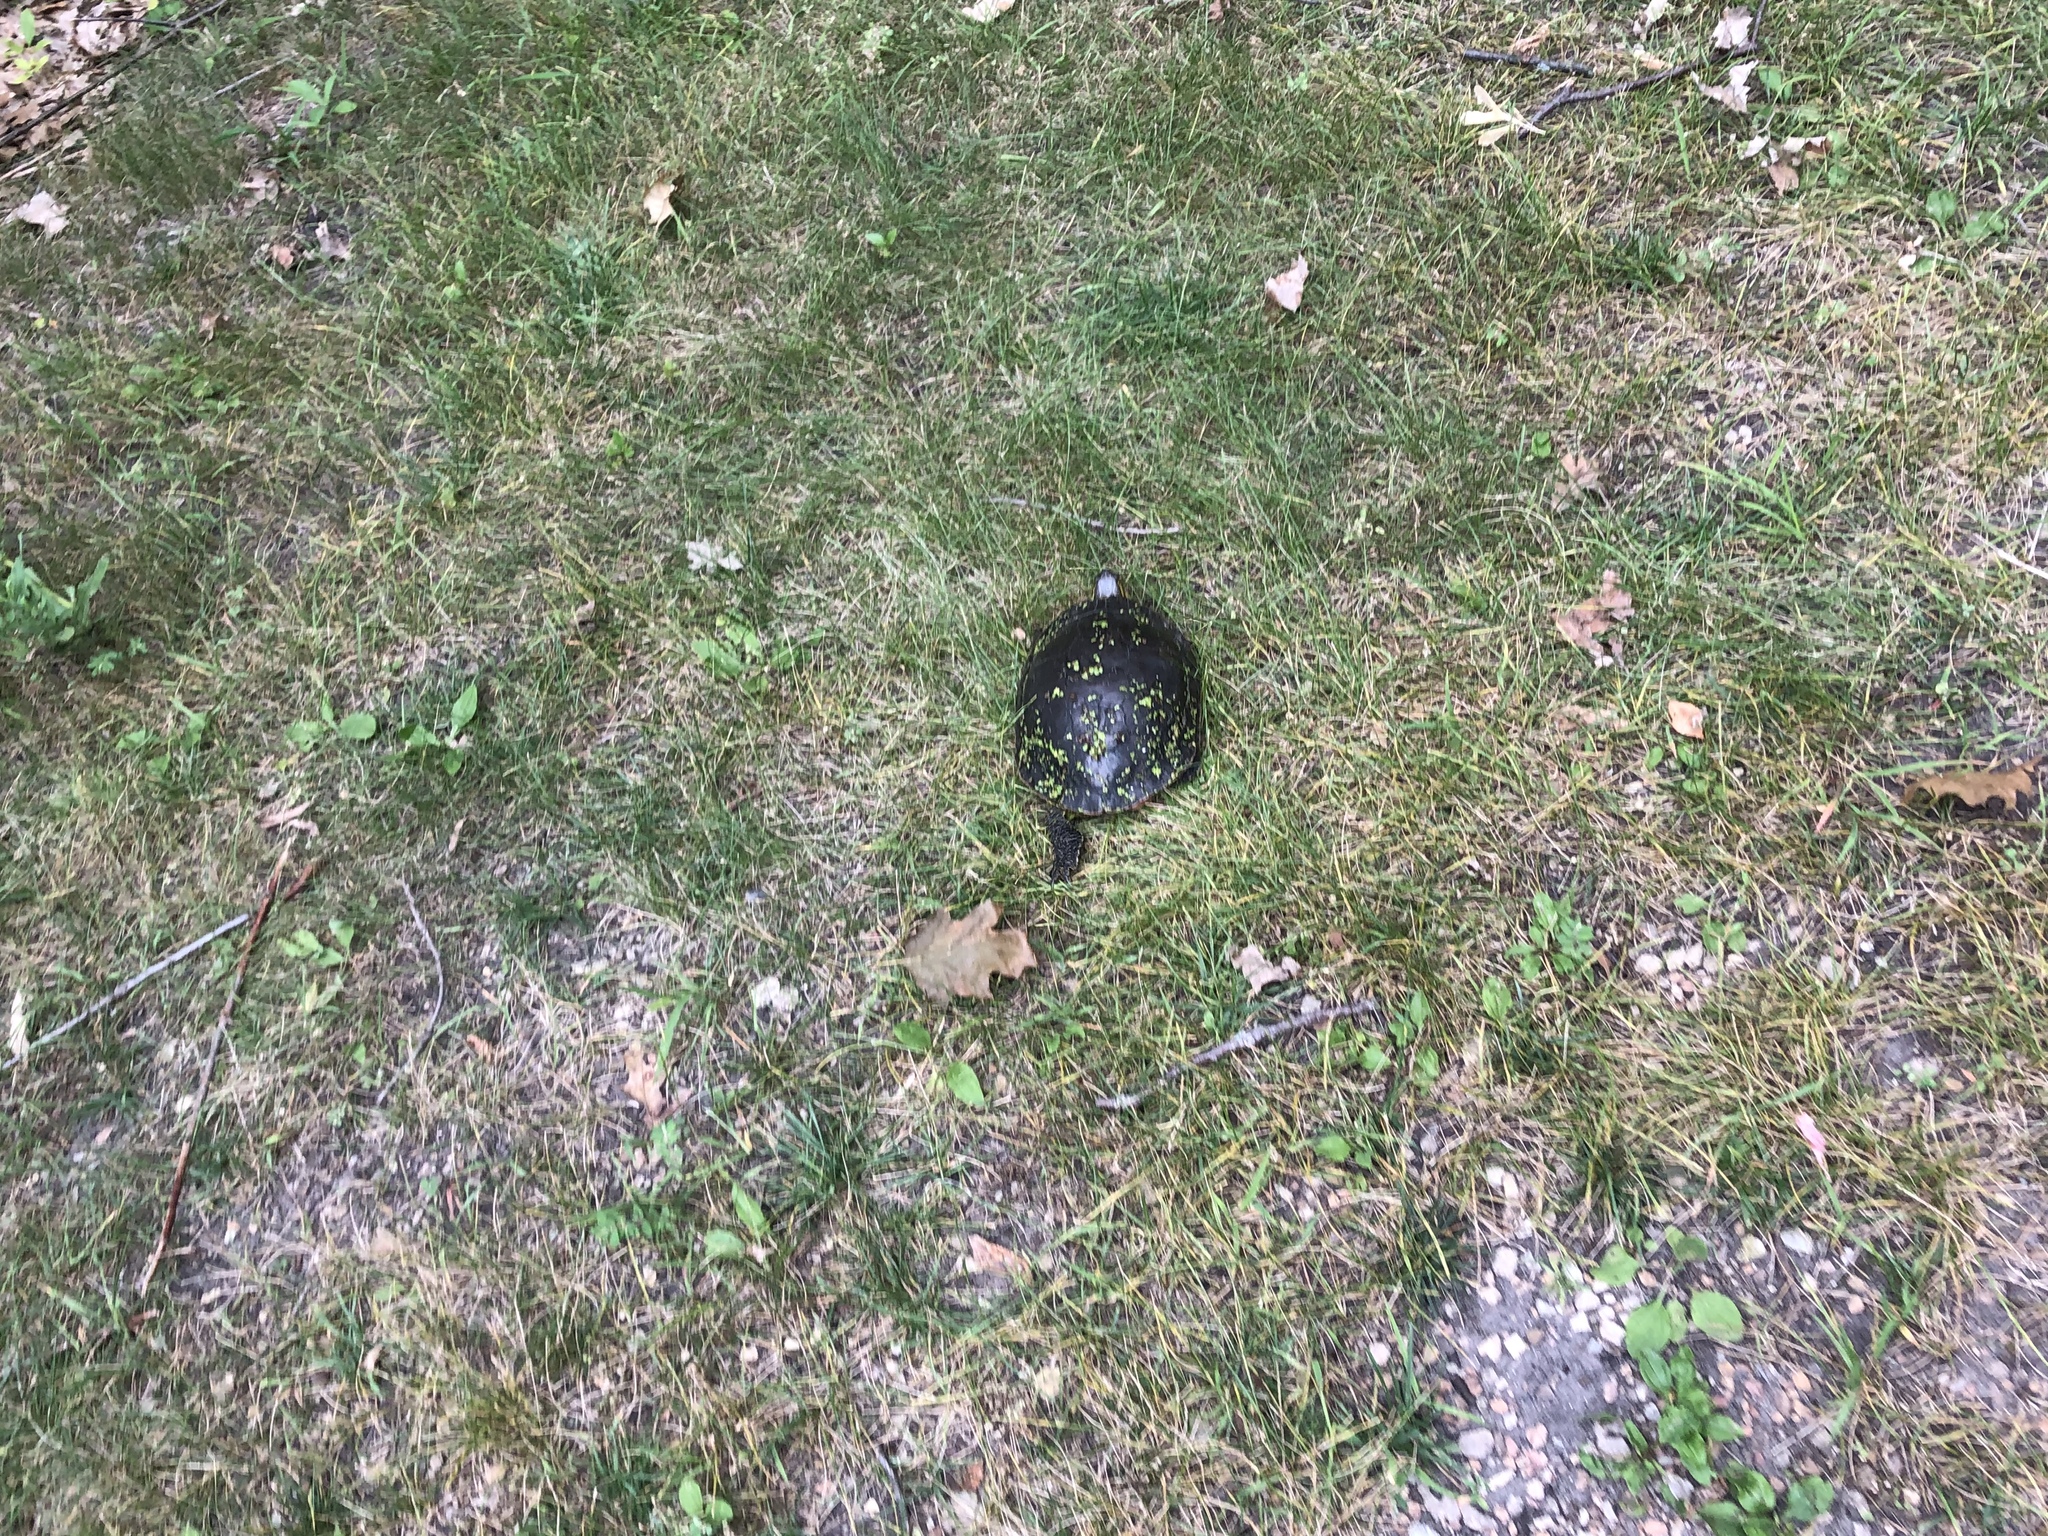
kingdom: Animalia
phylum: Chordata
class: Testudines
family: Emydidae
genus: Chrysemys
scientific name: Chrysemys picta
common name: Painted turtle
